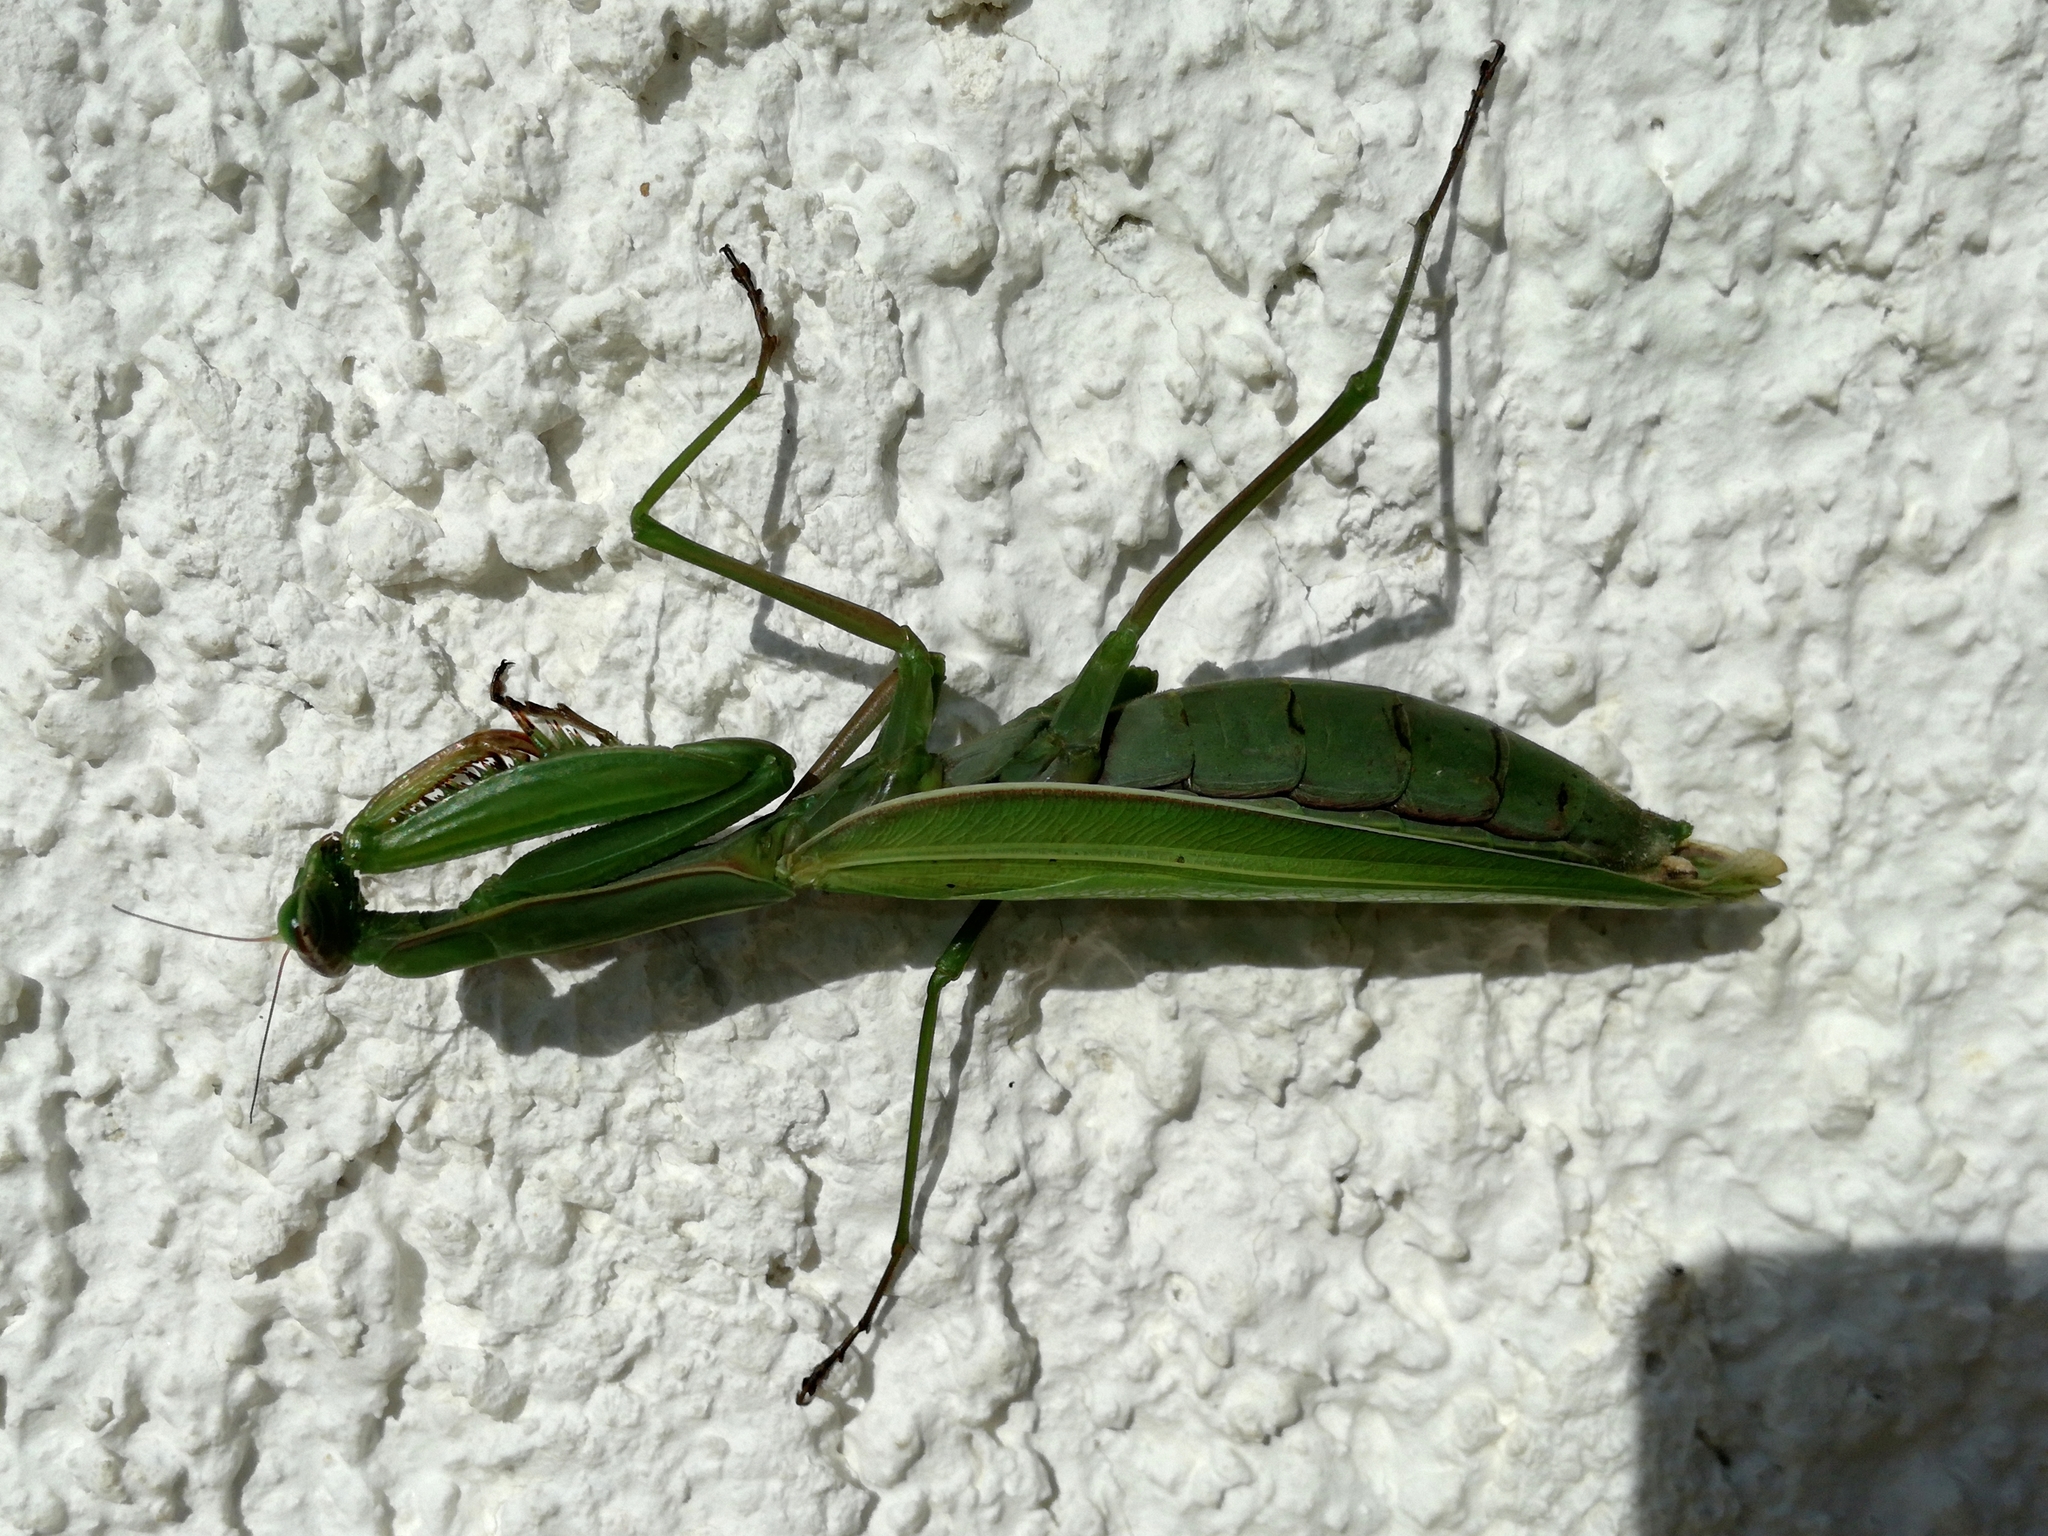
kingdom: Animalia
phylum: Arthropoda
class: Insecta
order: Mantodea
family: Mantidae
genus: Mantis
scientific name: Mantis religiosa
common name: Praying mantis
